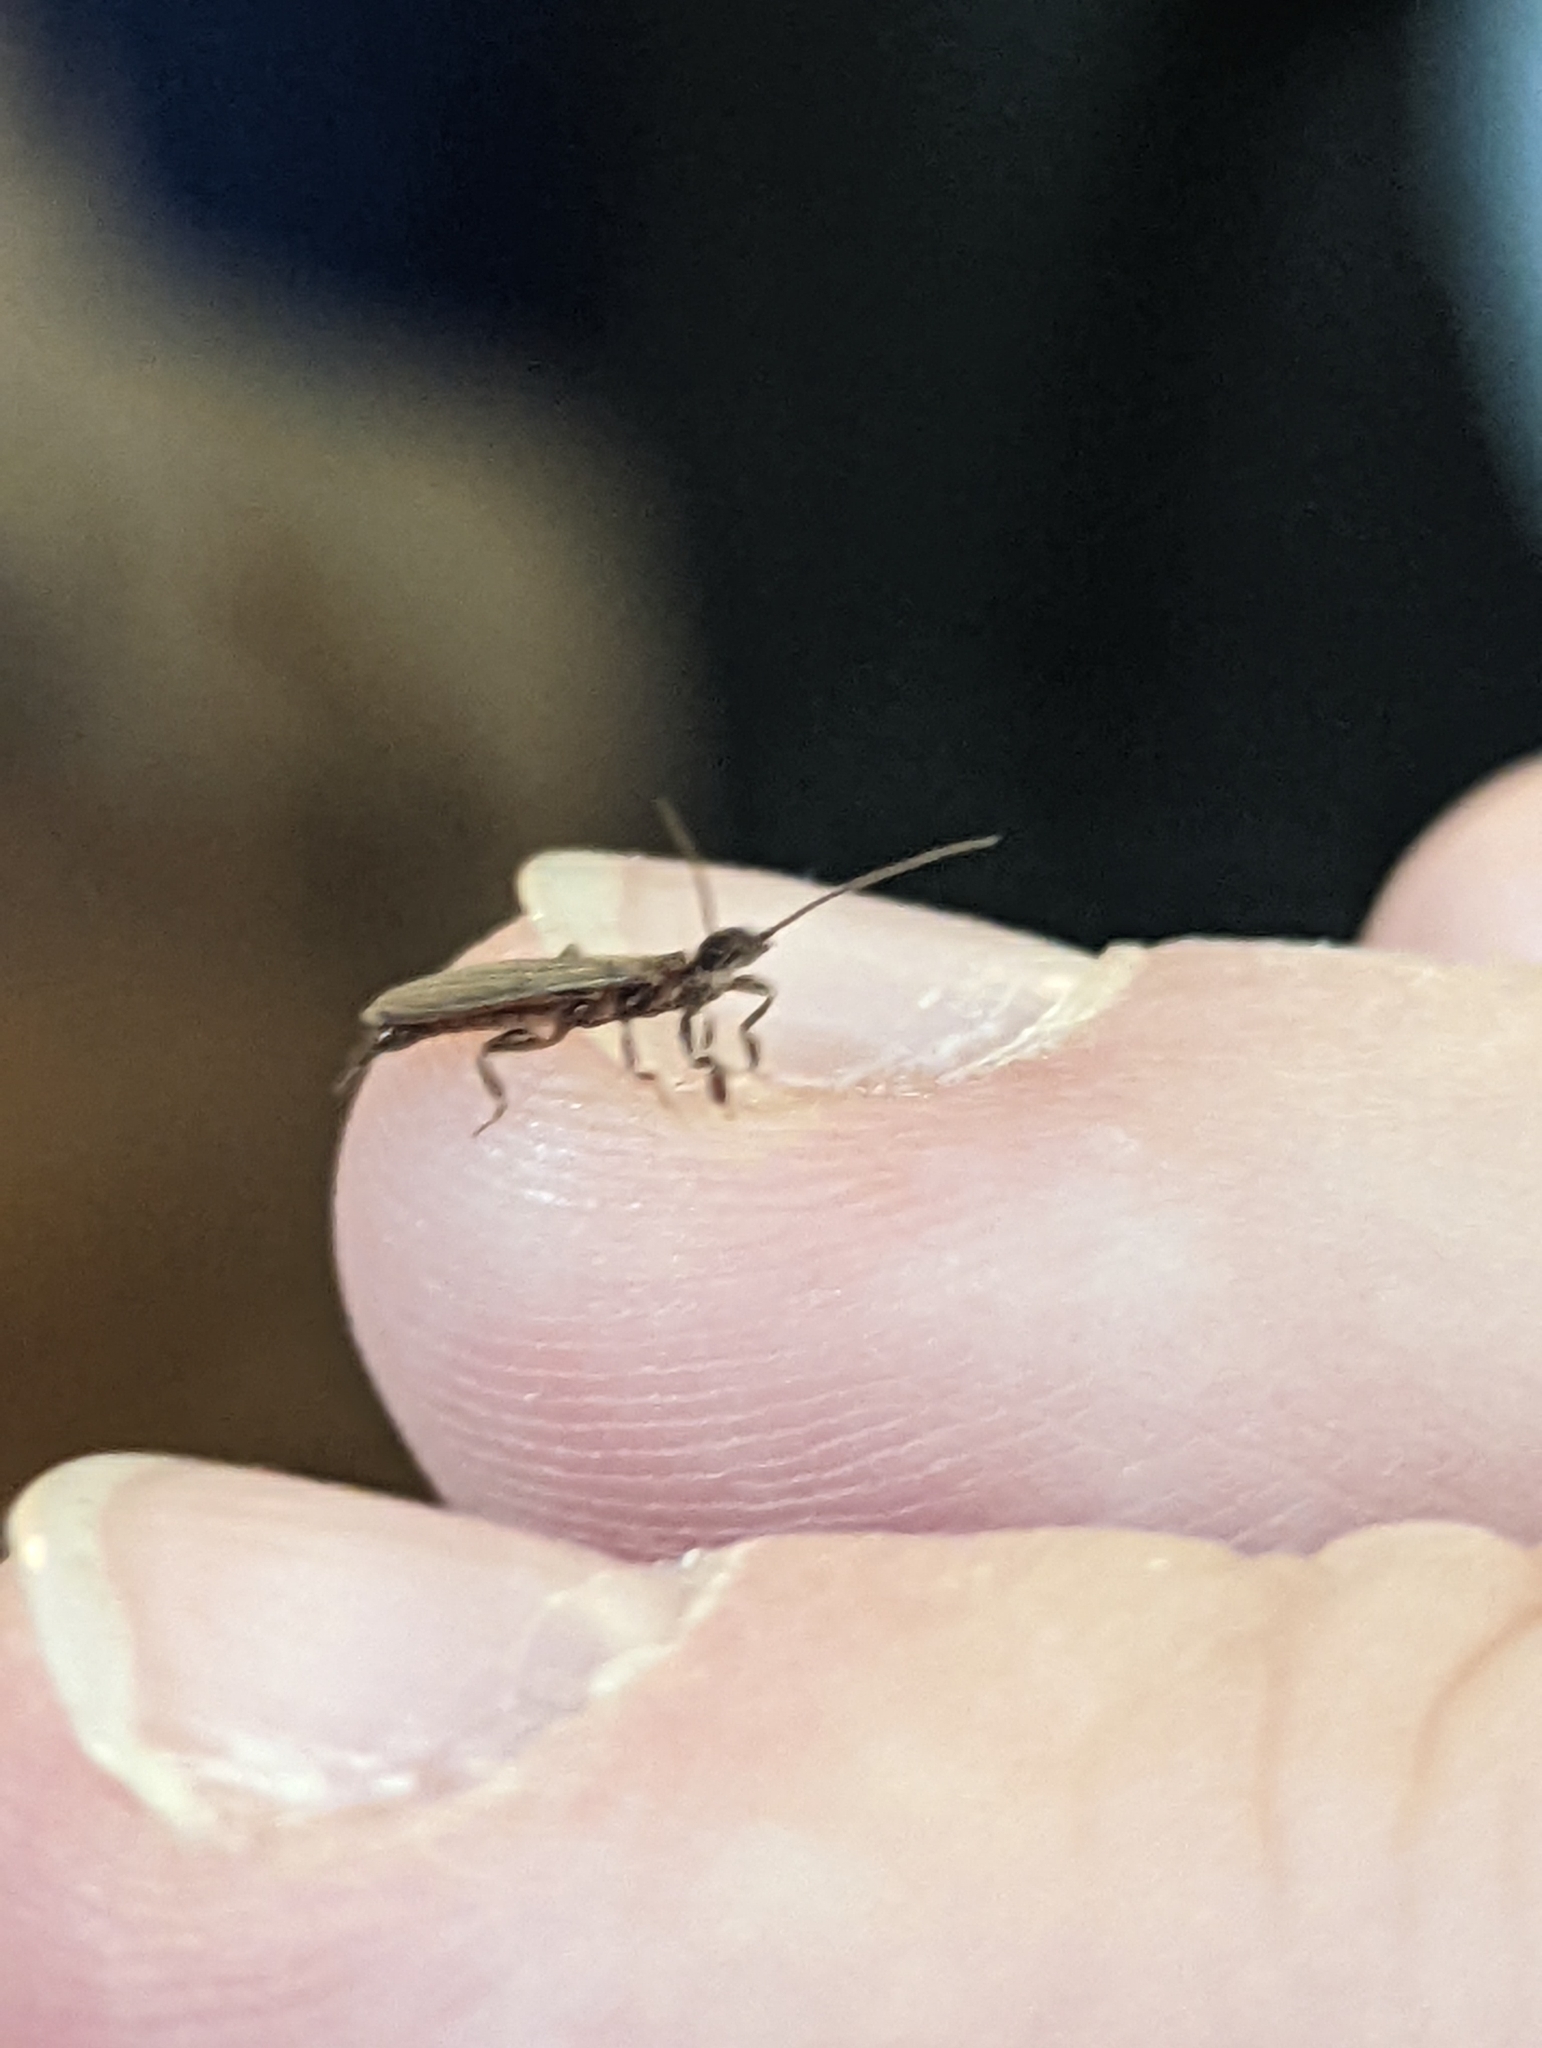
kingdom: Animalia
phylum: Arthropoda
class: Insecta
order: Embioptera
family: Oligotomidae
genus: Oligotoma
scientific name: Oligotoma nigra
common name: Black webspinner
